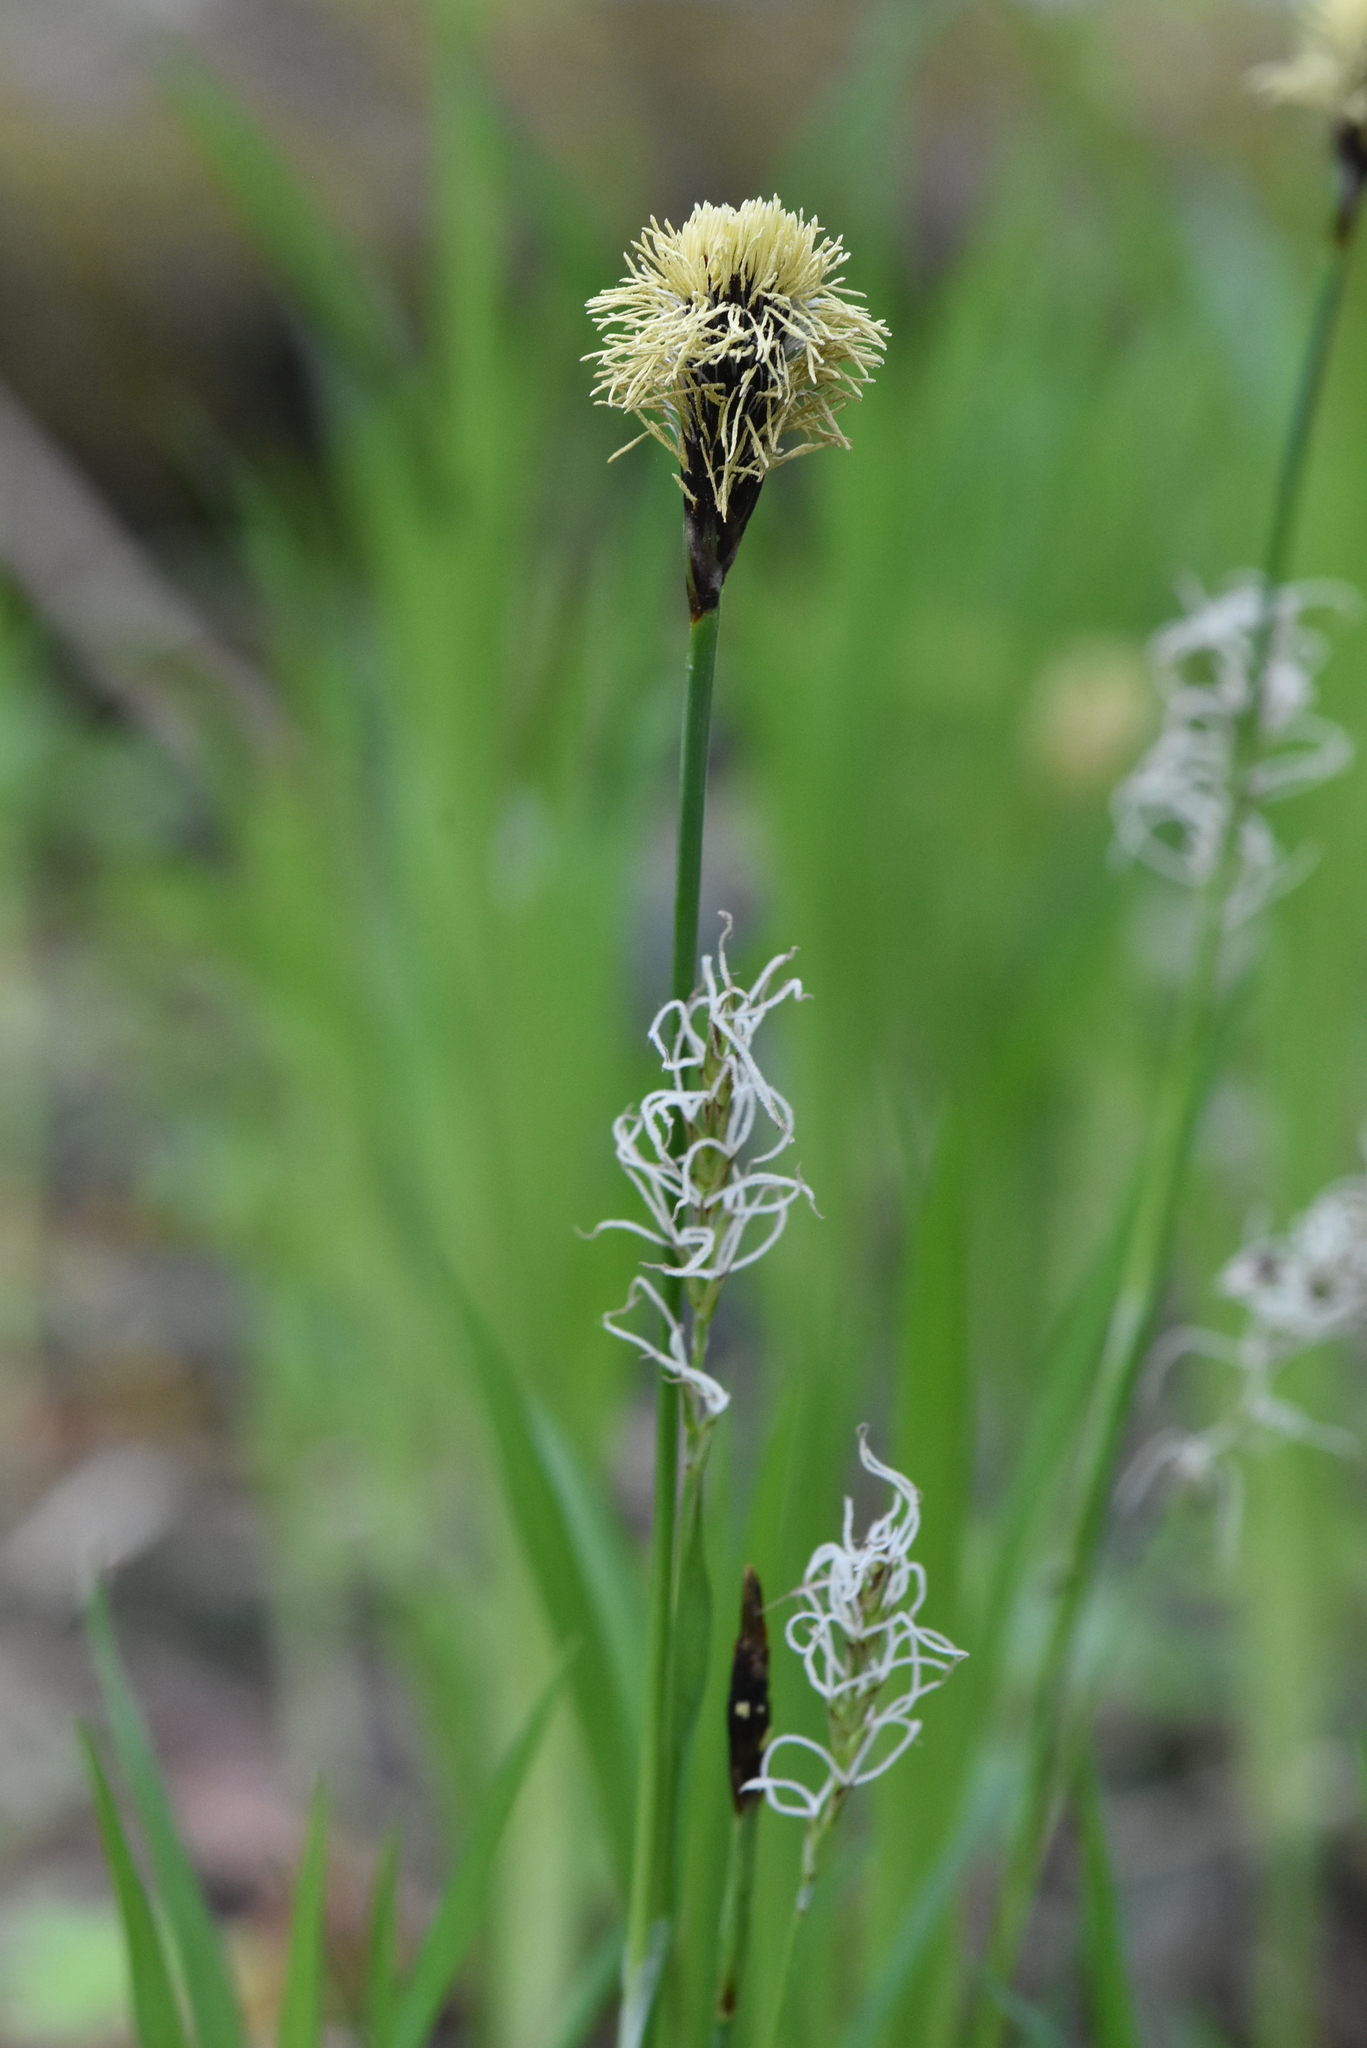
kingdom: Plantae
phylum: Tracheophyta
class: Liliopsida
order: Poales
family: Cyperaceae
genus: Carex
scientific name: Carex pilosa
